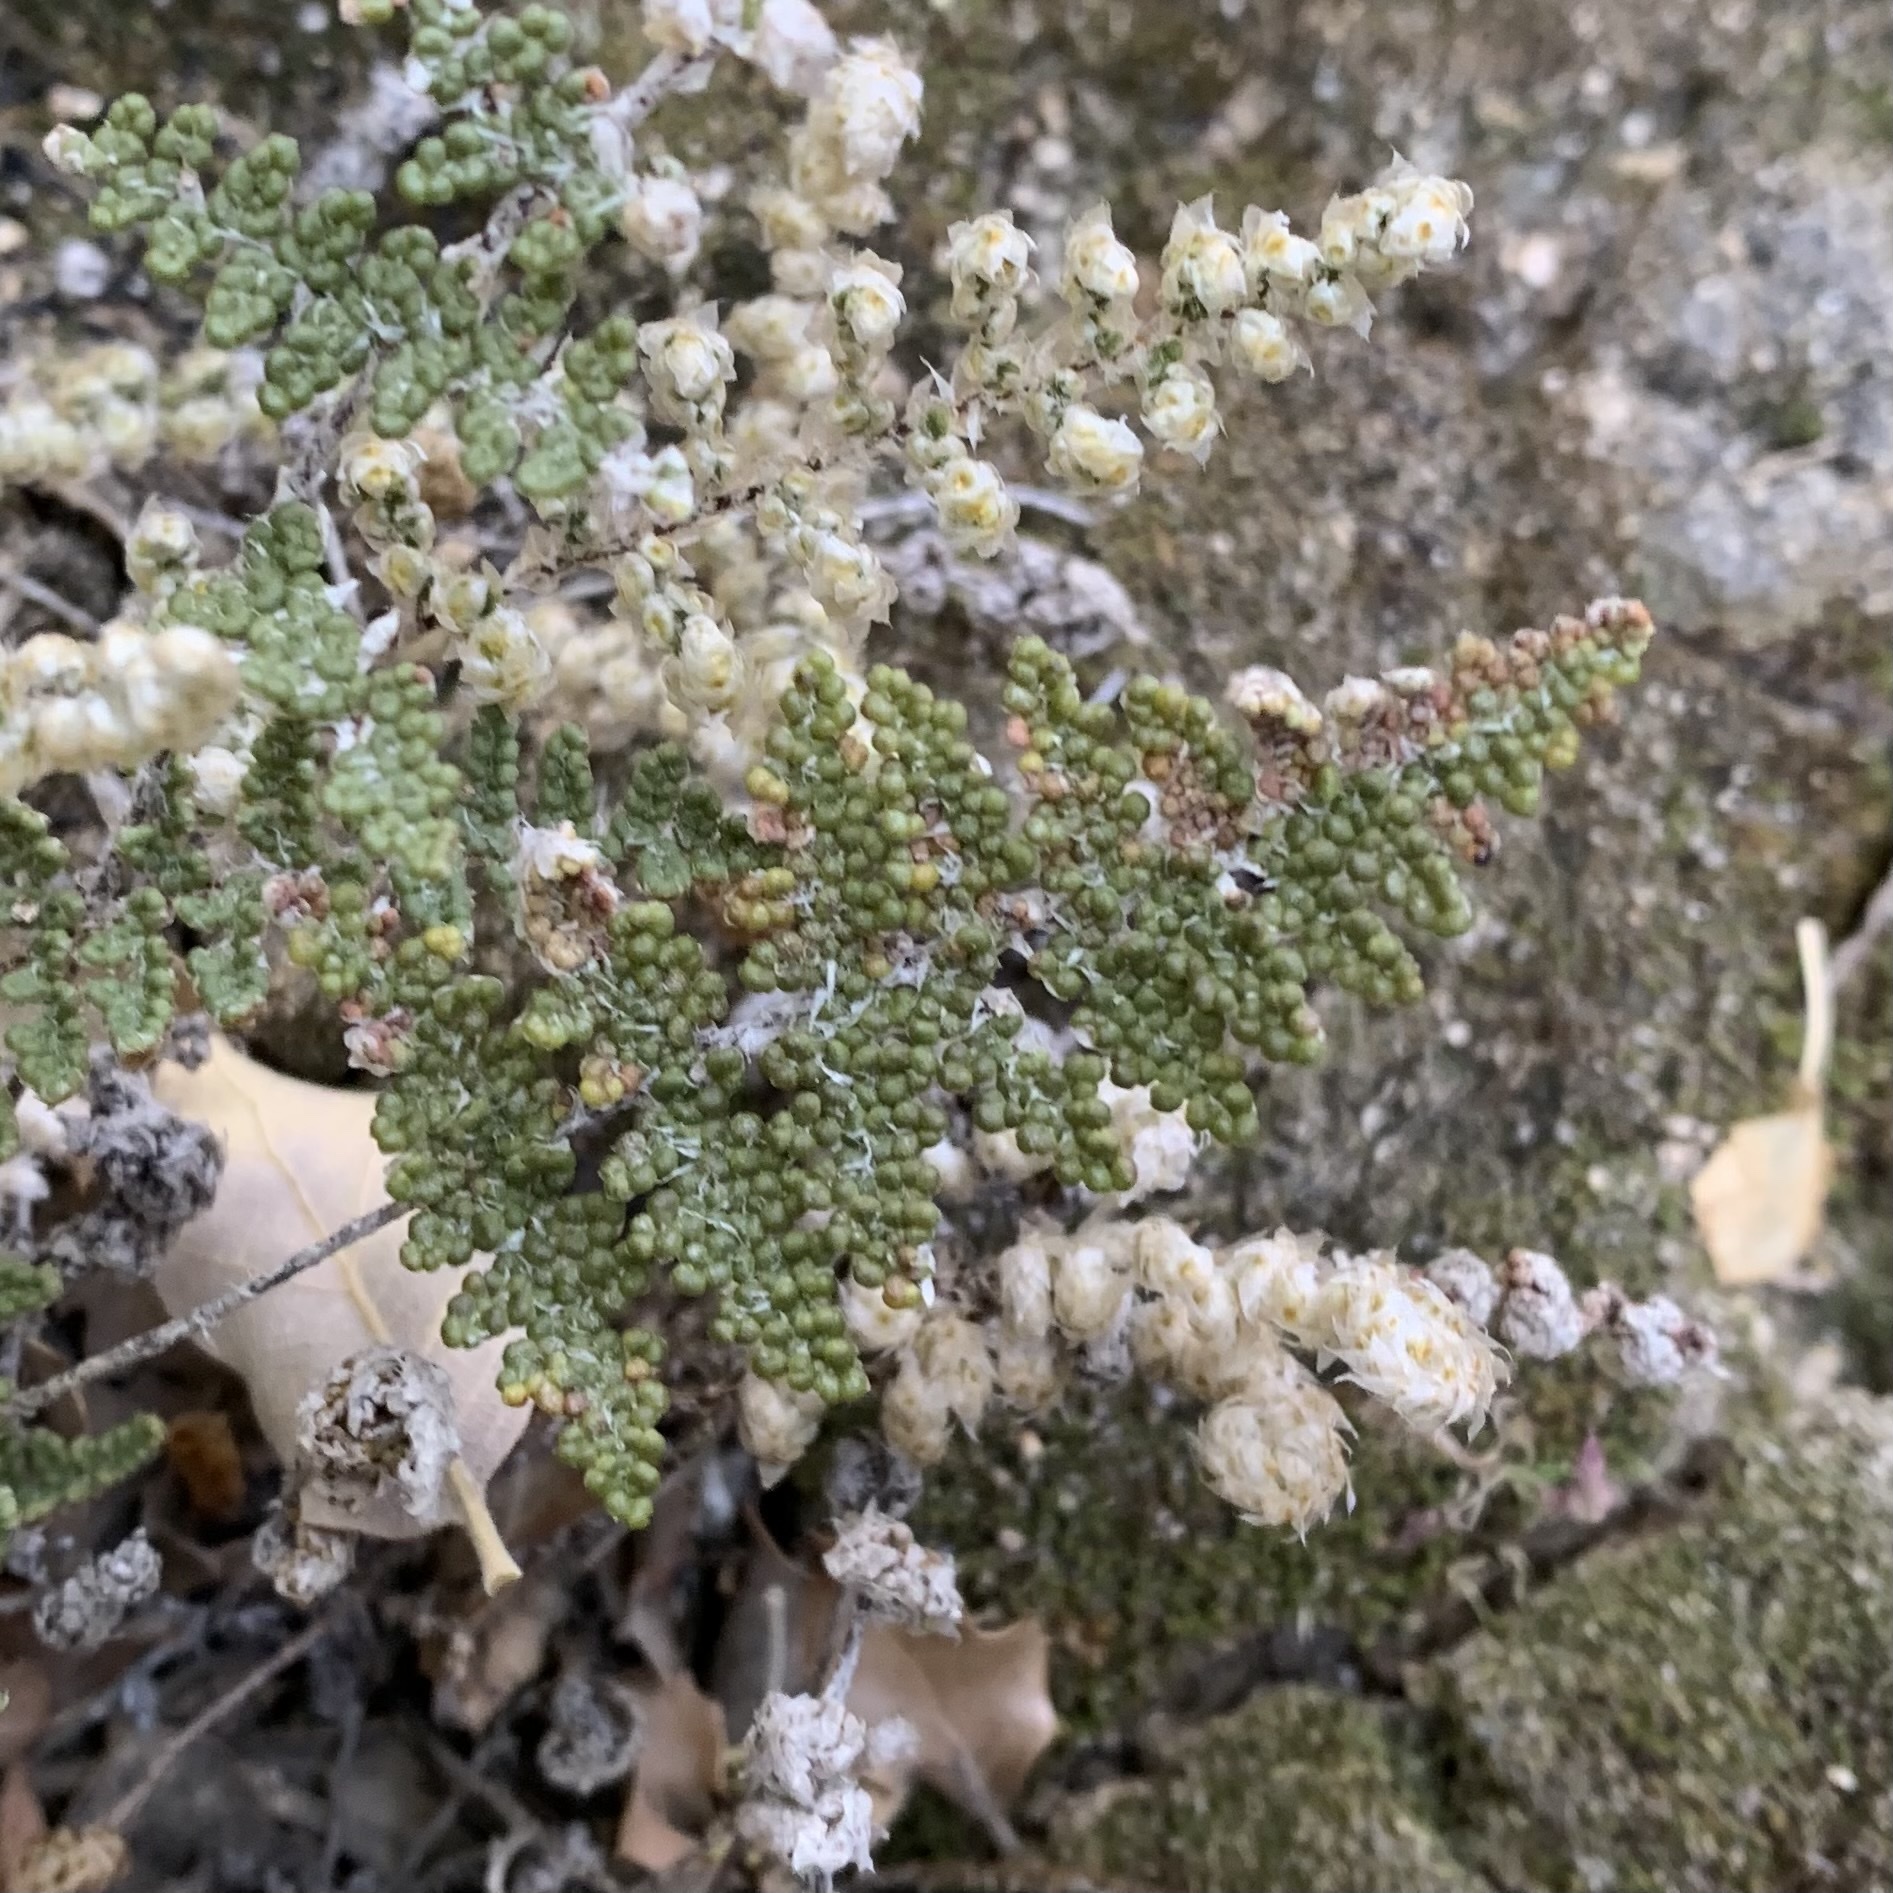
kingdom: Plantae
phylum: Tracheophyta
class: Polypodiopsida
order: Polypodiales
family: Pteridaceae
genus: Myriopteris
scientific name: Myriopteris covillei
